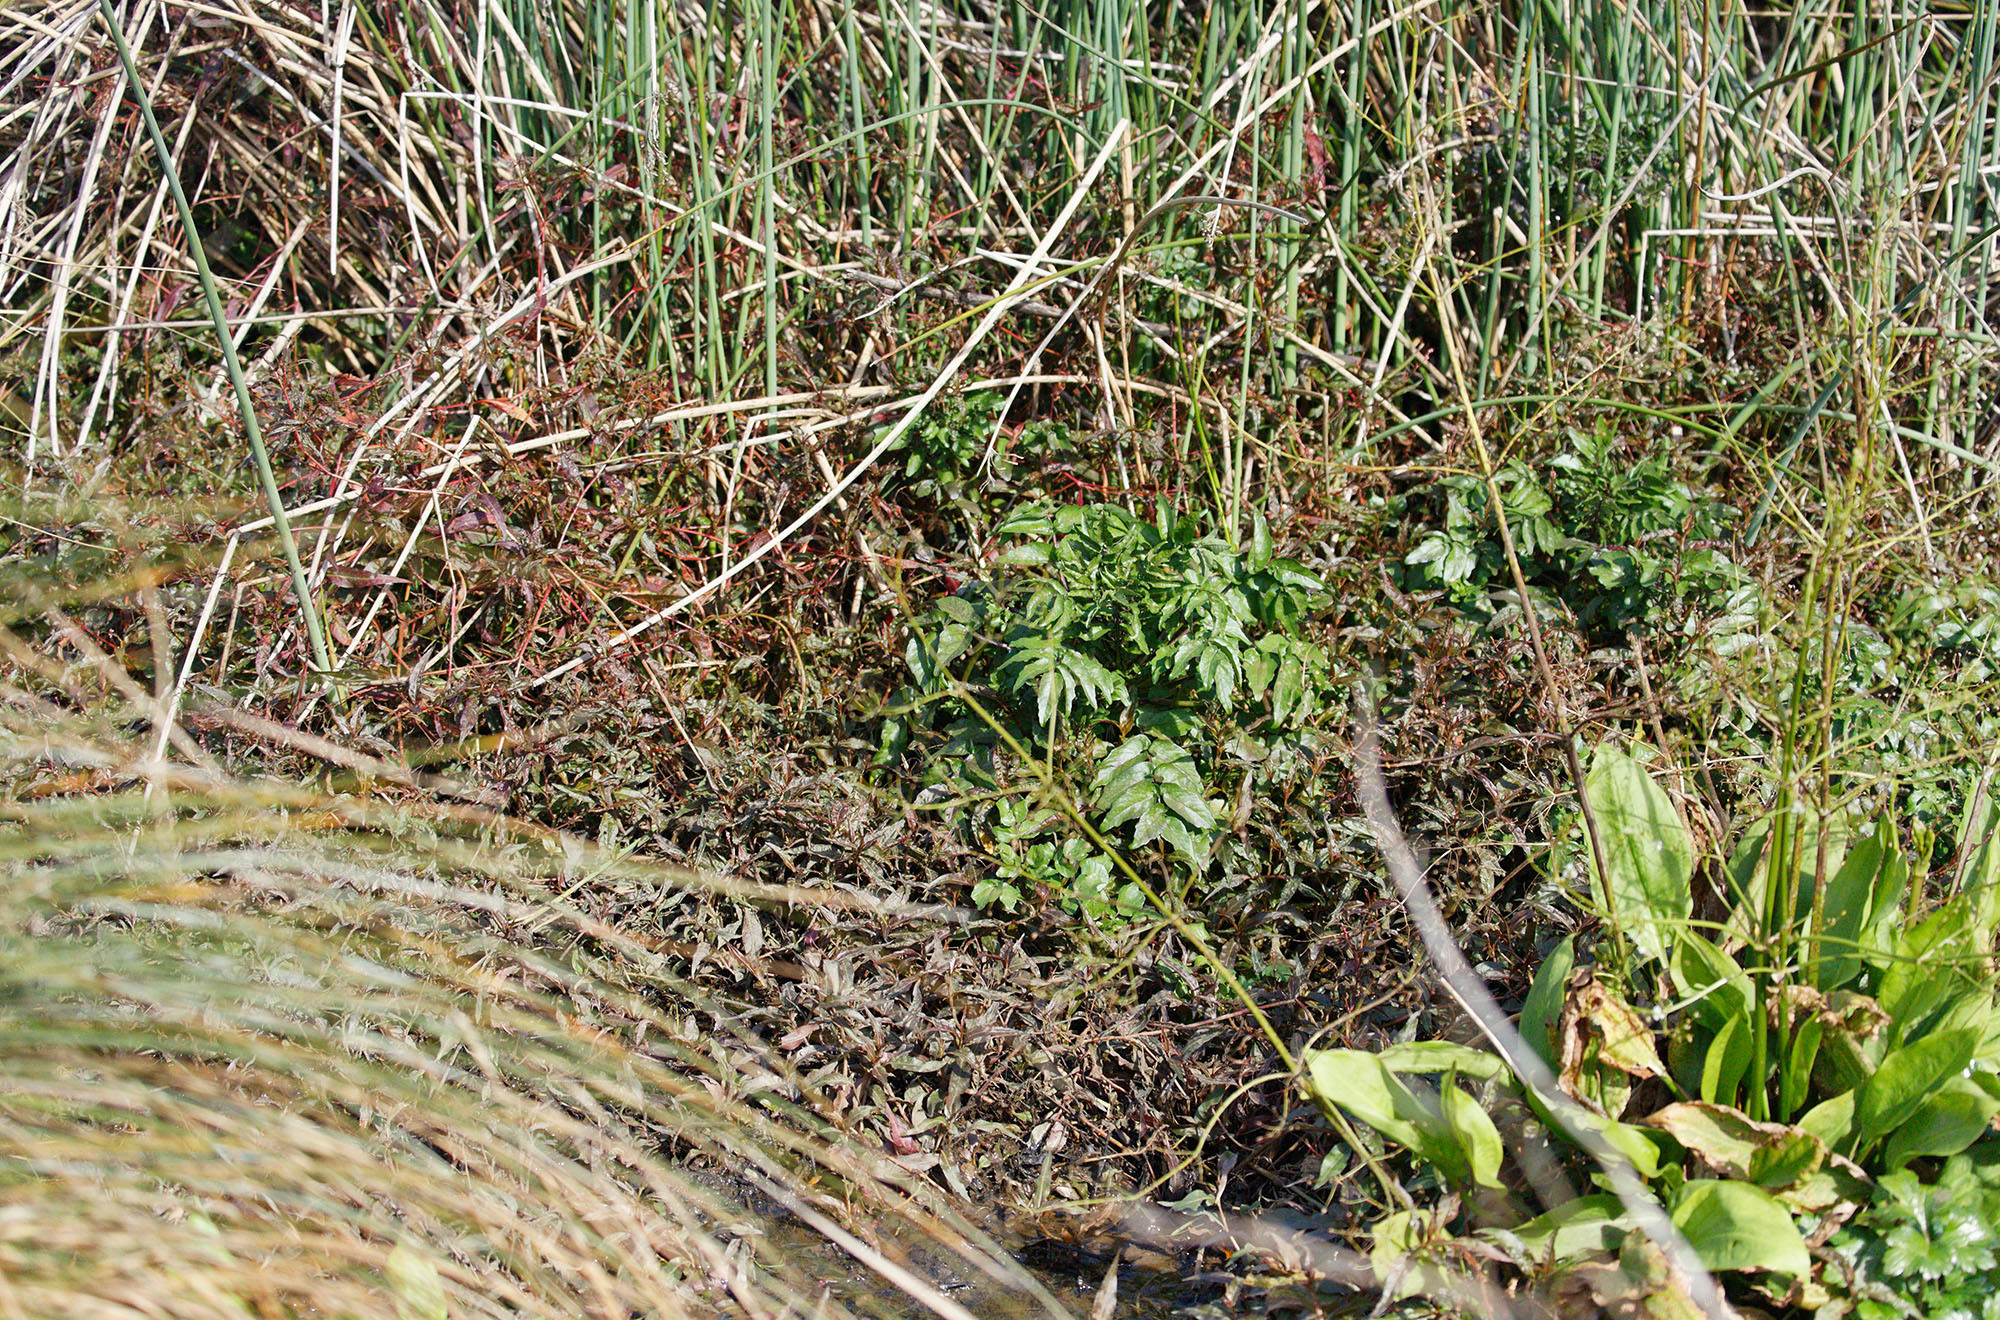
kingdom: Plantae
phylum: Tracheophyta
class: Magnoliopsida
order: Brassicales
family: Brassicaceae
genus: Nasturtium
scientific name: Nasturtium officinale
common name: Watercress
